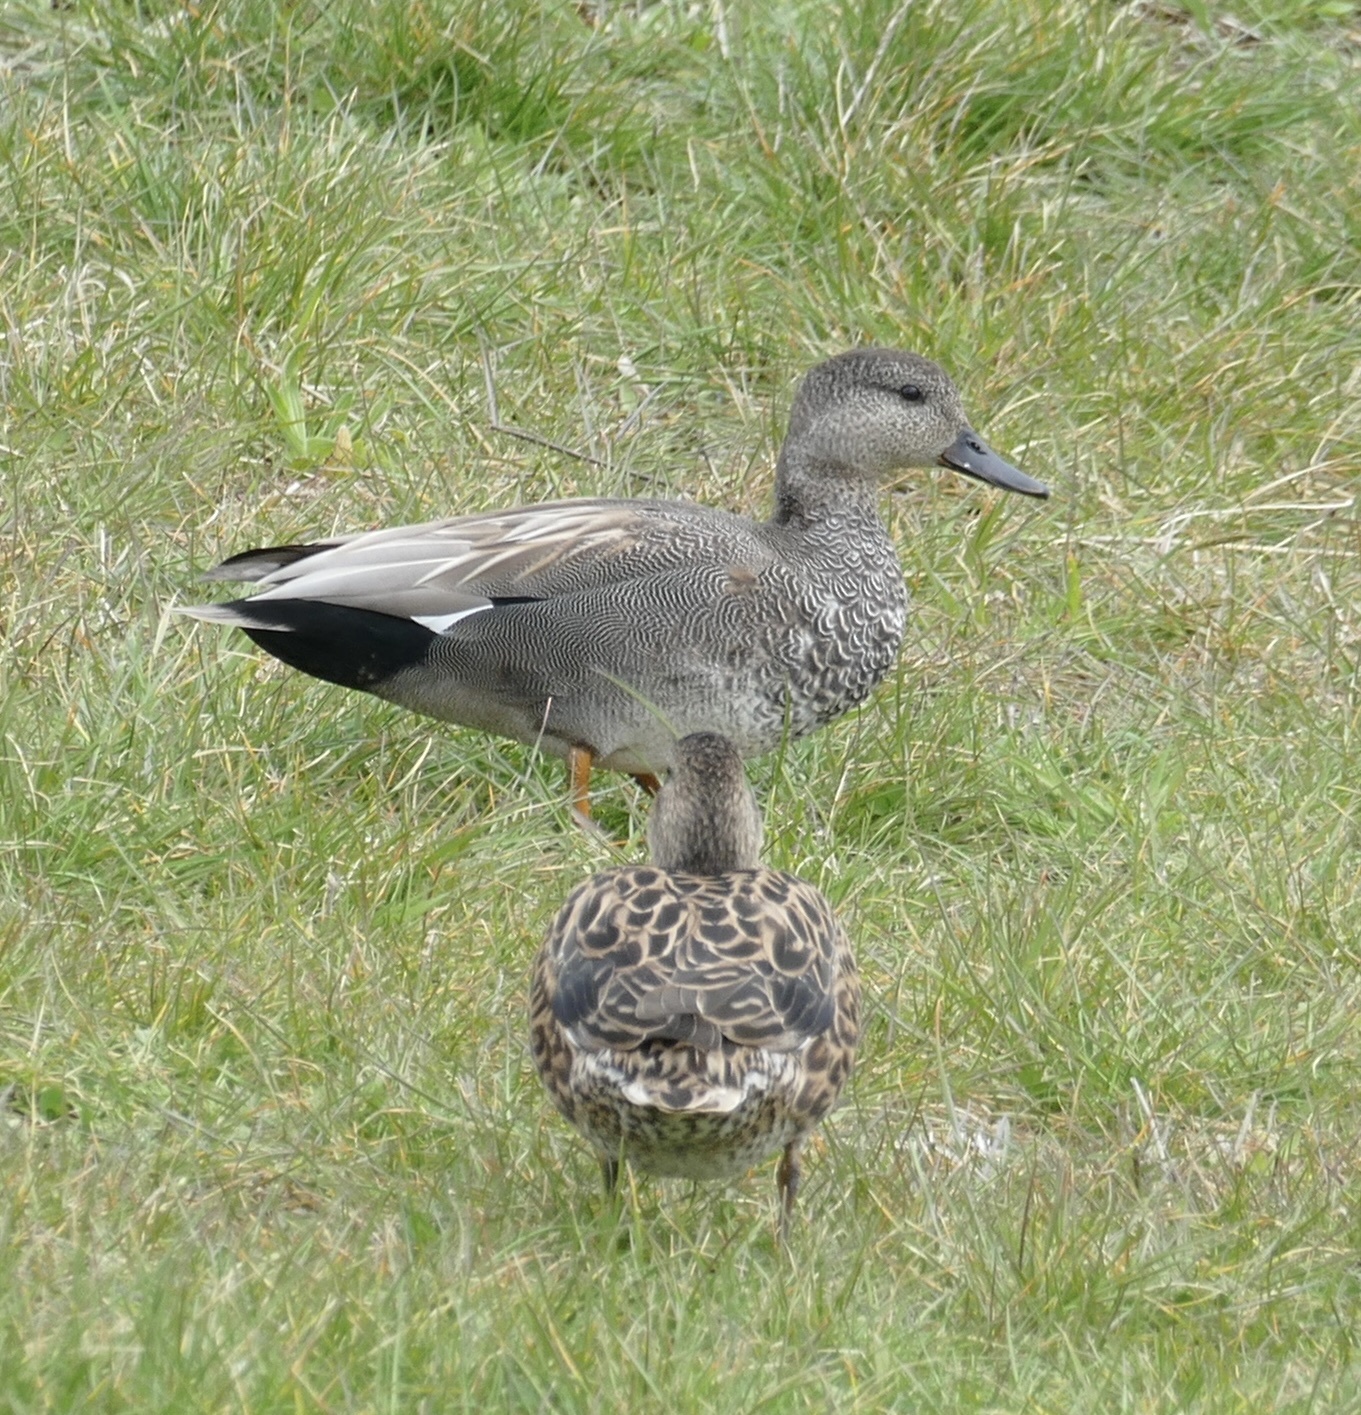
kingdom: Animalia
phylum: Chordata
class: Aves
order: Anseriformes
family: Anatidae
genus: Mareca
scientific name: Mareca strepera
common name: Gadwall
